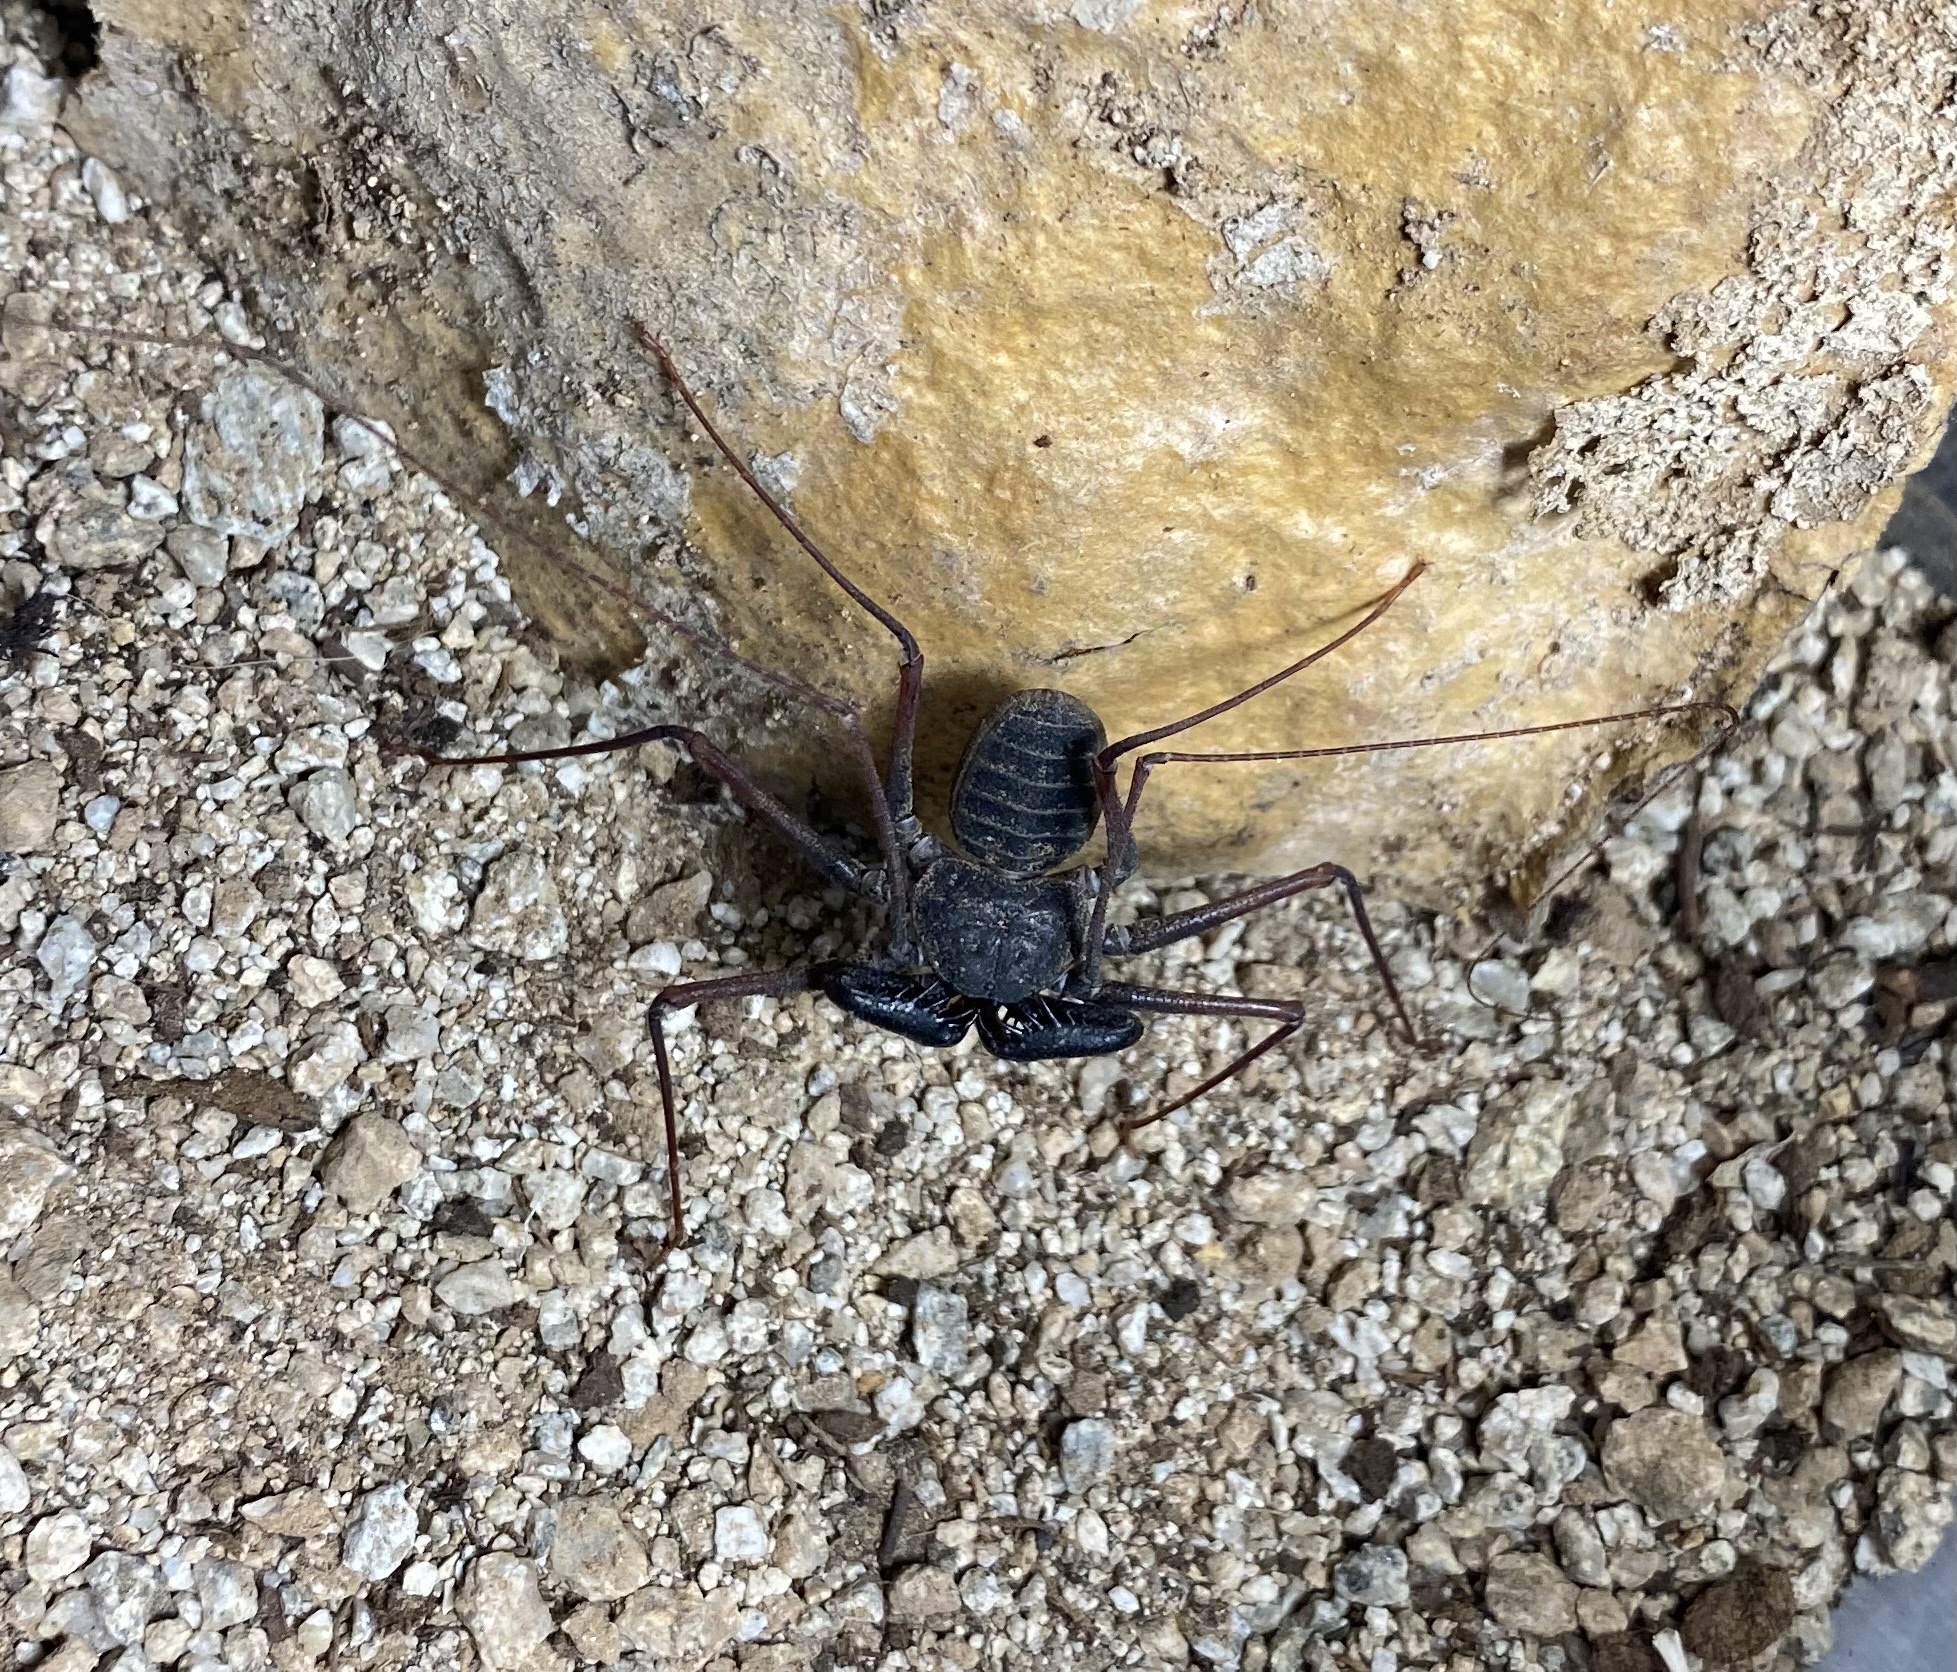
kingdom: Animalia
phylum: Arthropoda
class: Arachnida
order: Amblypygi
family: Phrynidae
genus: Paraphrynus
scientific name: Paraphrynus carolynae
